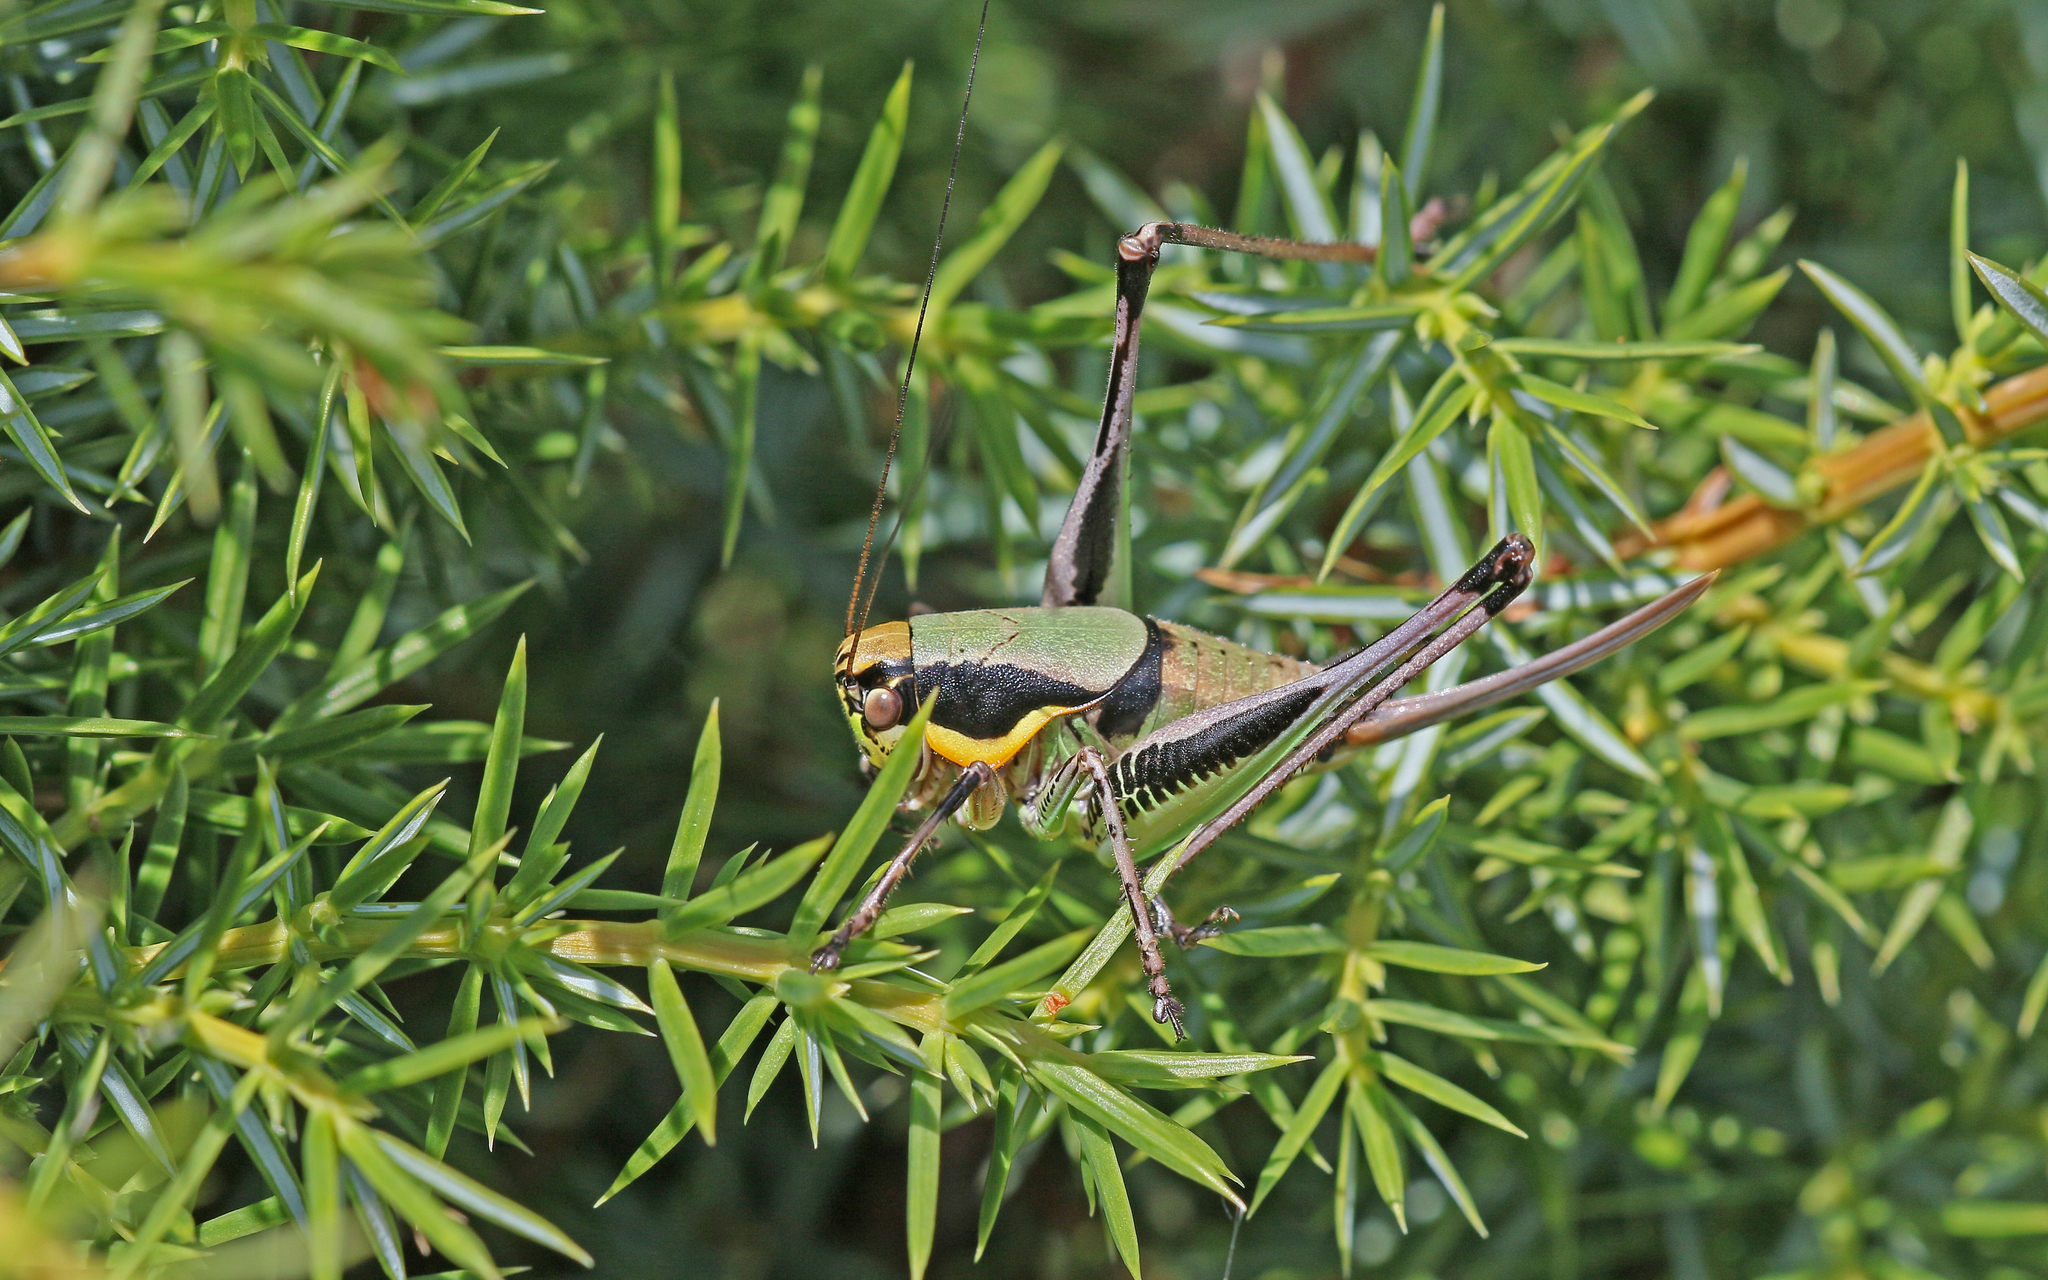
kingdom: Animalia
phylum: Arthropoda
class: Insecta
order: Orthoptera
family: Tettigoniidae
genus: Eupholidoptera
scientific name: Eupholidoptera chabrieri
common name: Chabrier's marbled bush-cricket
